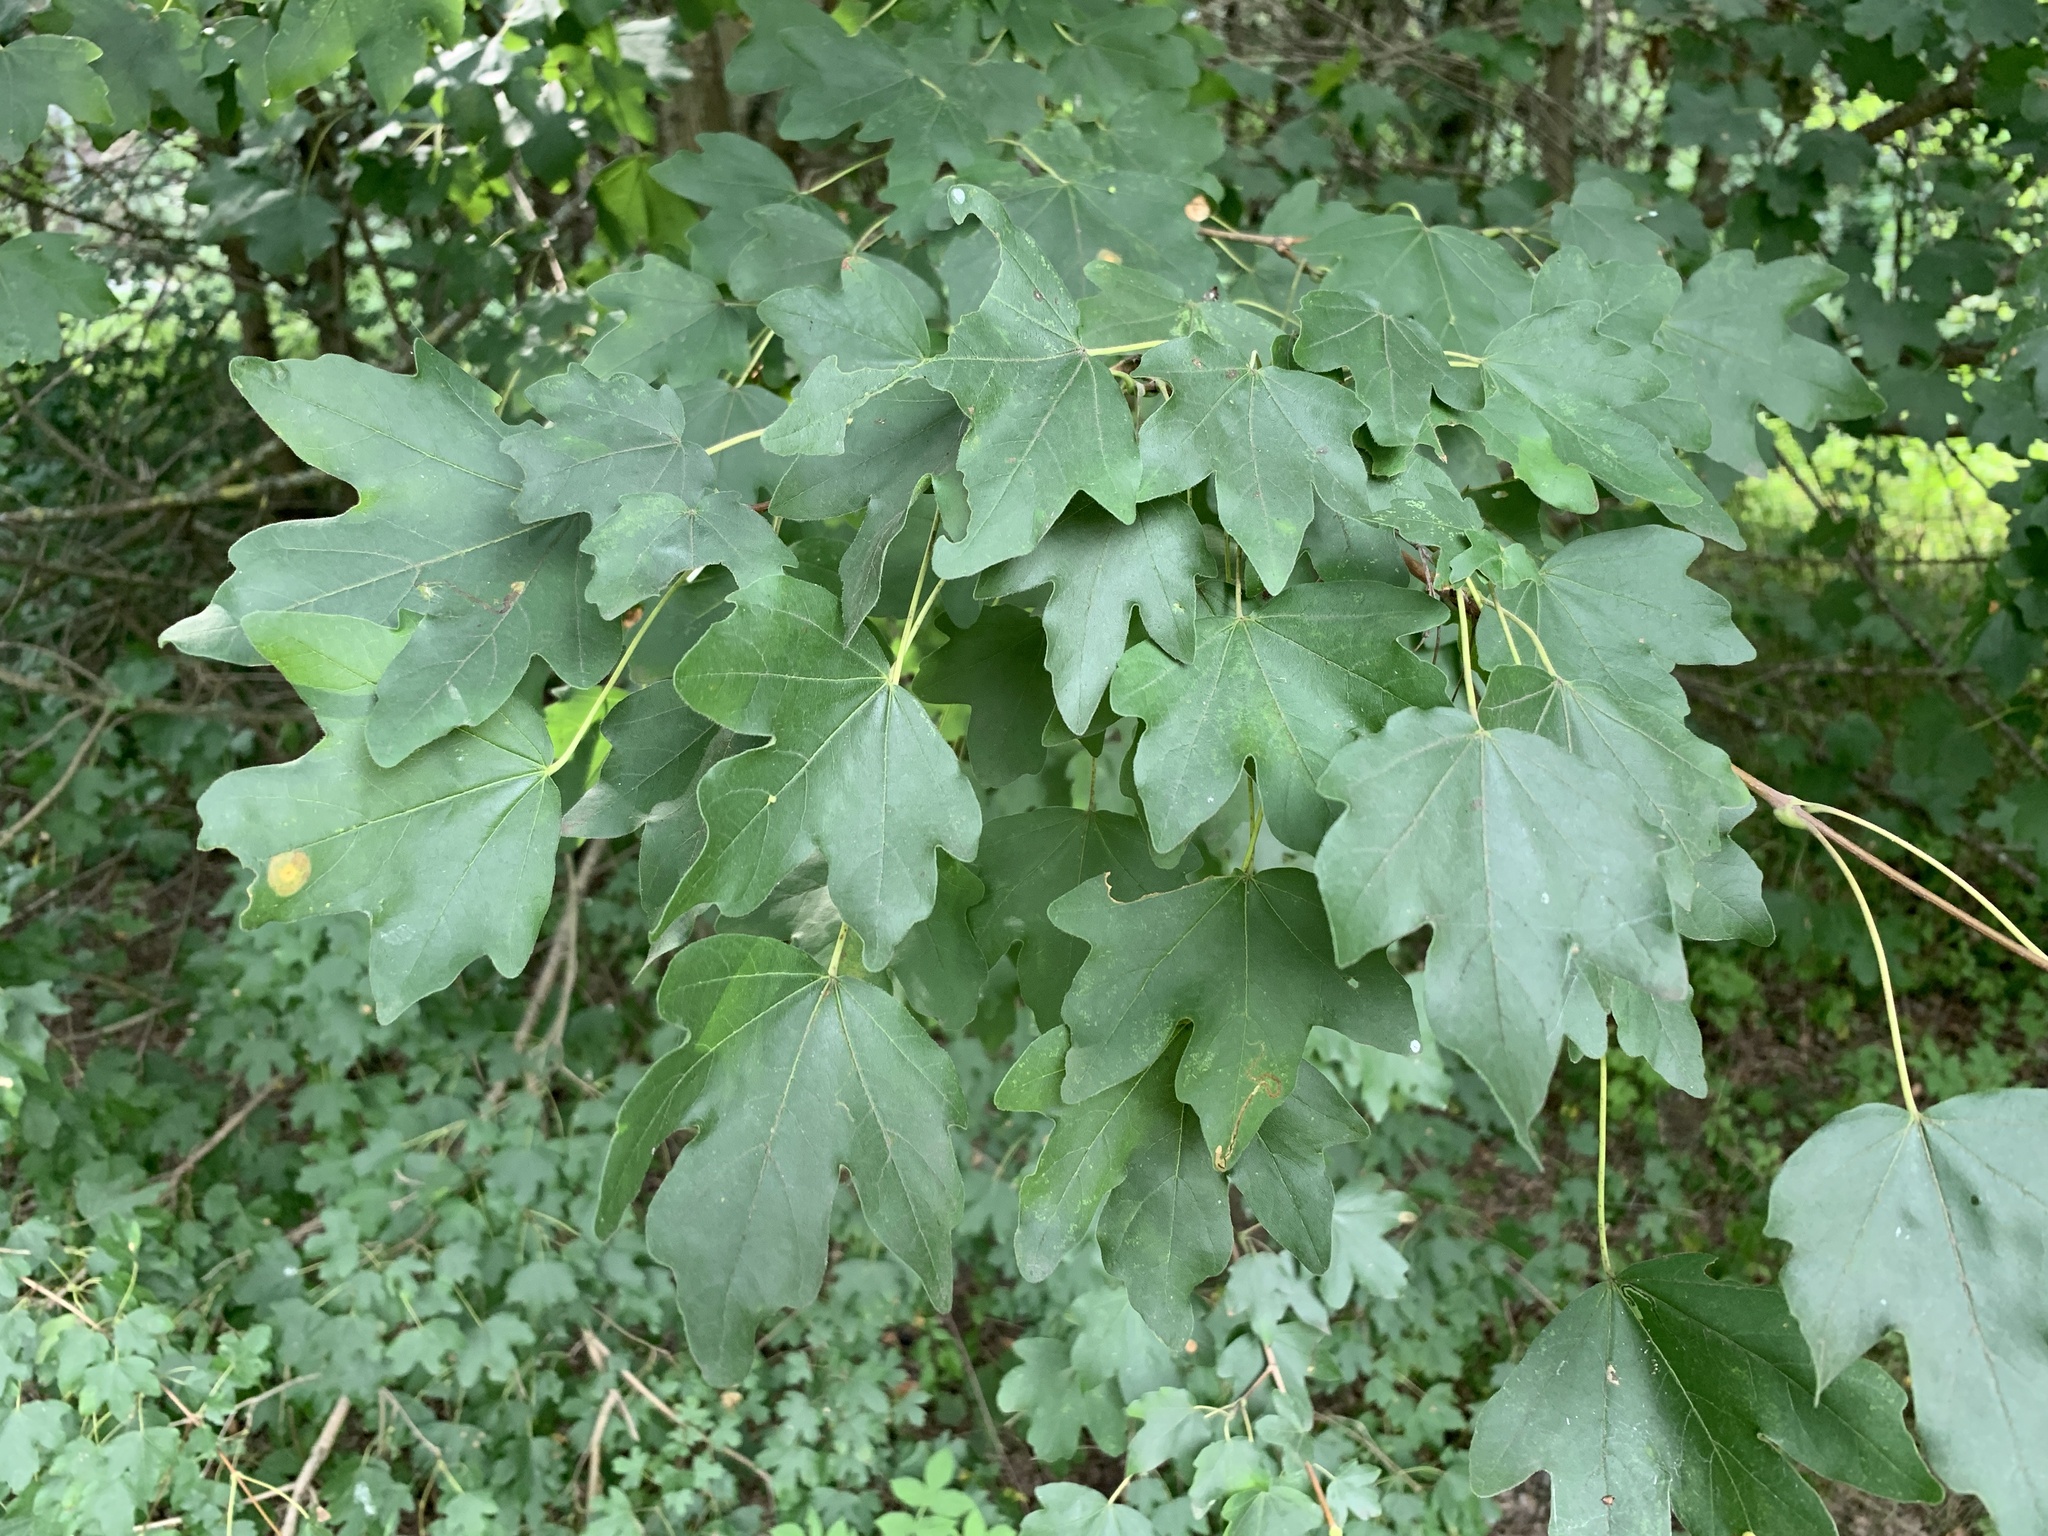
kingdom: Plantae
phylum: Tracheophyta
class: Magnoliopsida
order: Sapindales
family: Sapindaceae
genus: Acer
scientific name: Acer campestre
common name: Field maple
